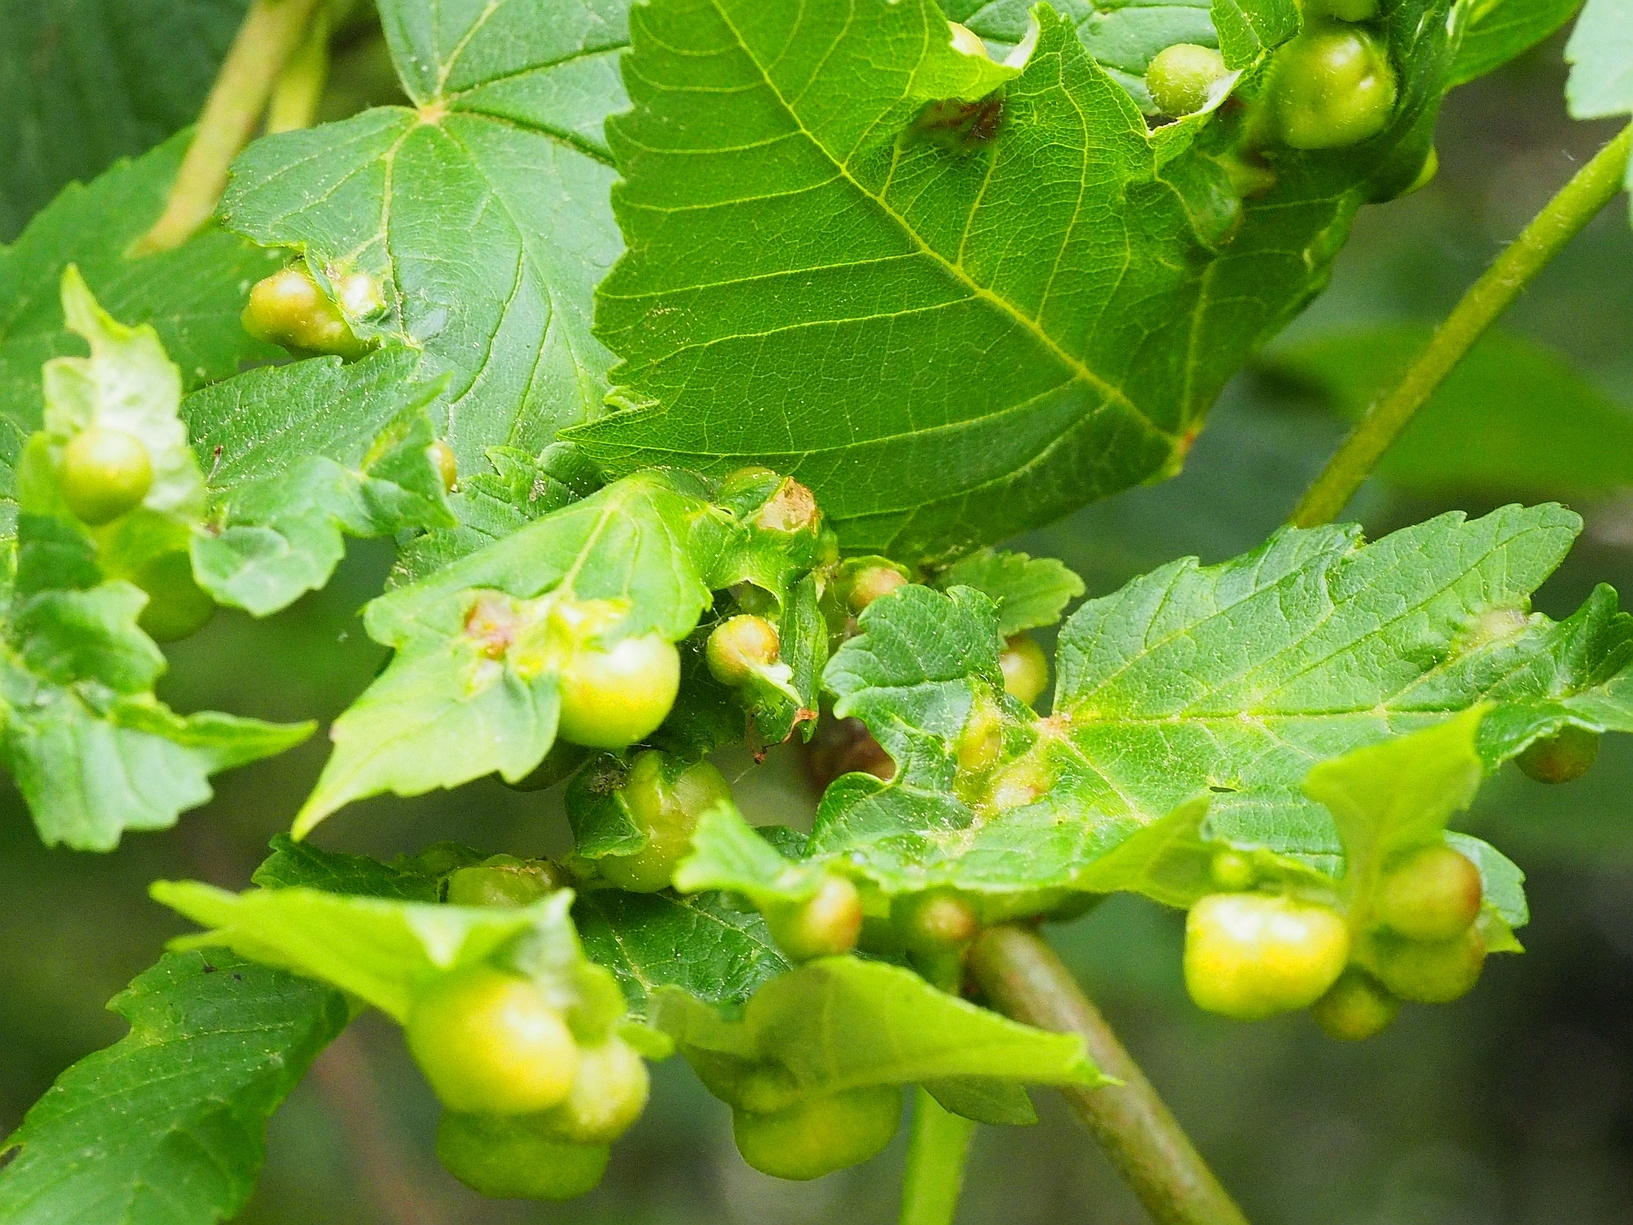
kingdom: Animalia
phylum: Arthropoda
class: Insecta
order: Hymenoptera
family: Cynipidae
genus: Pediaspis
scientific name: Pediaspis aceris
